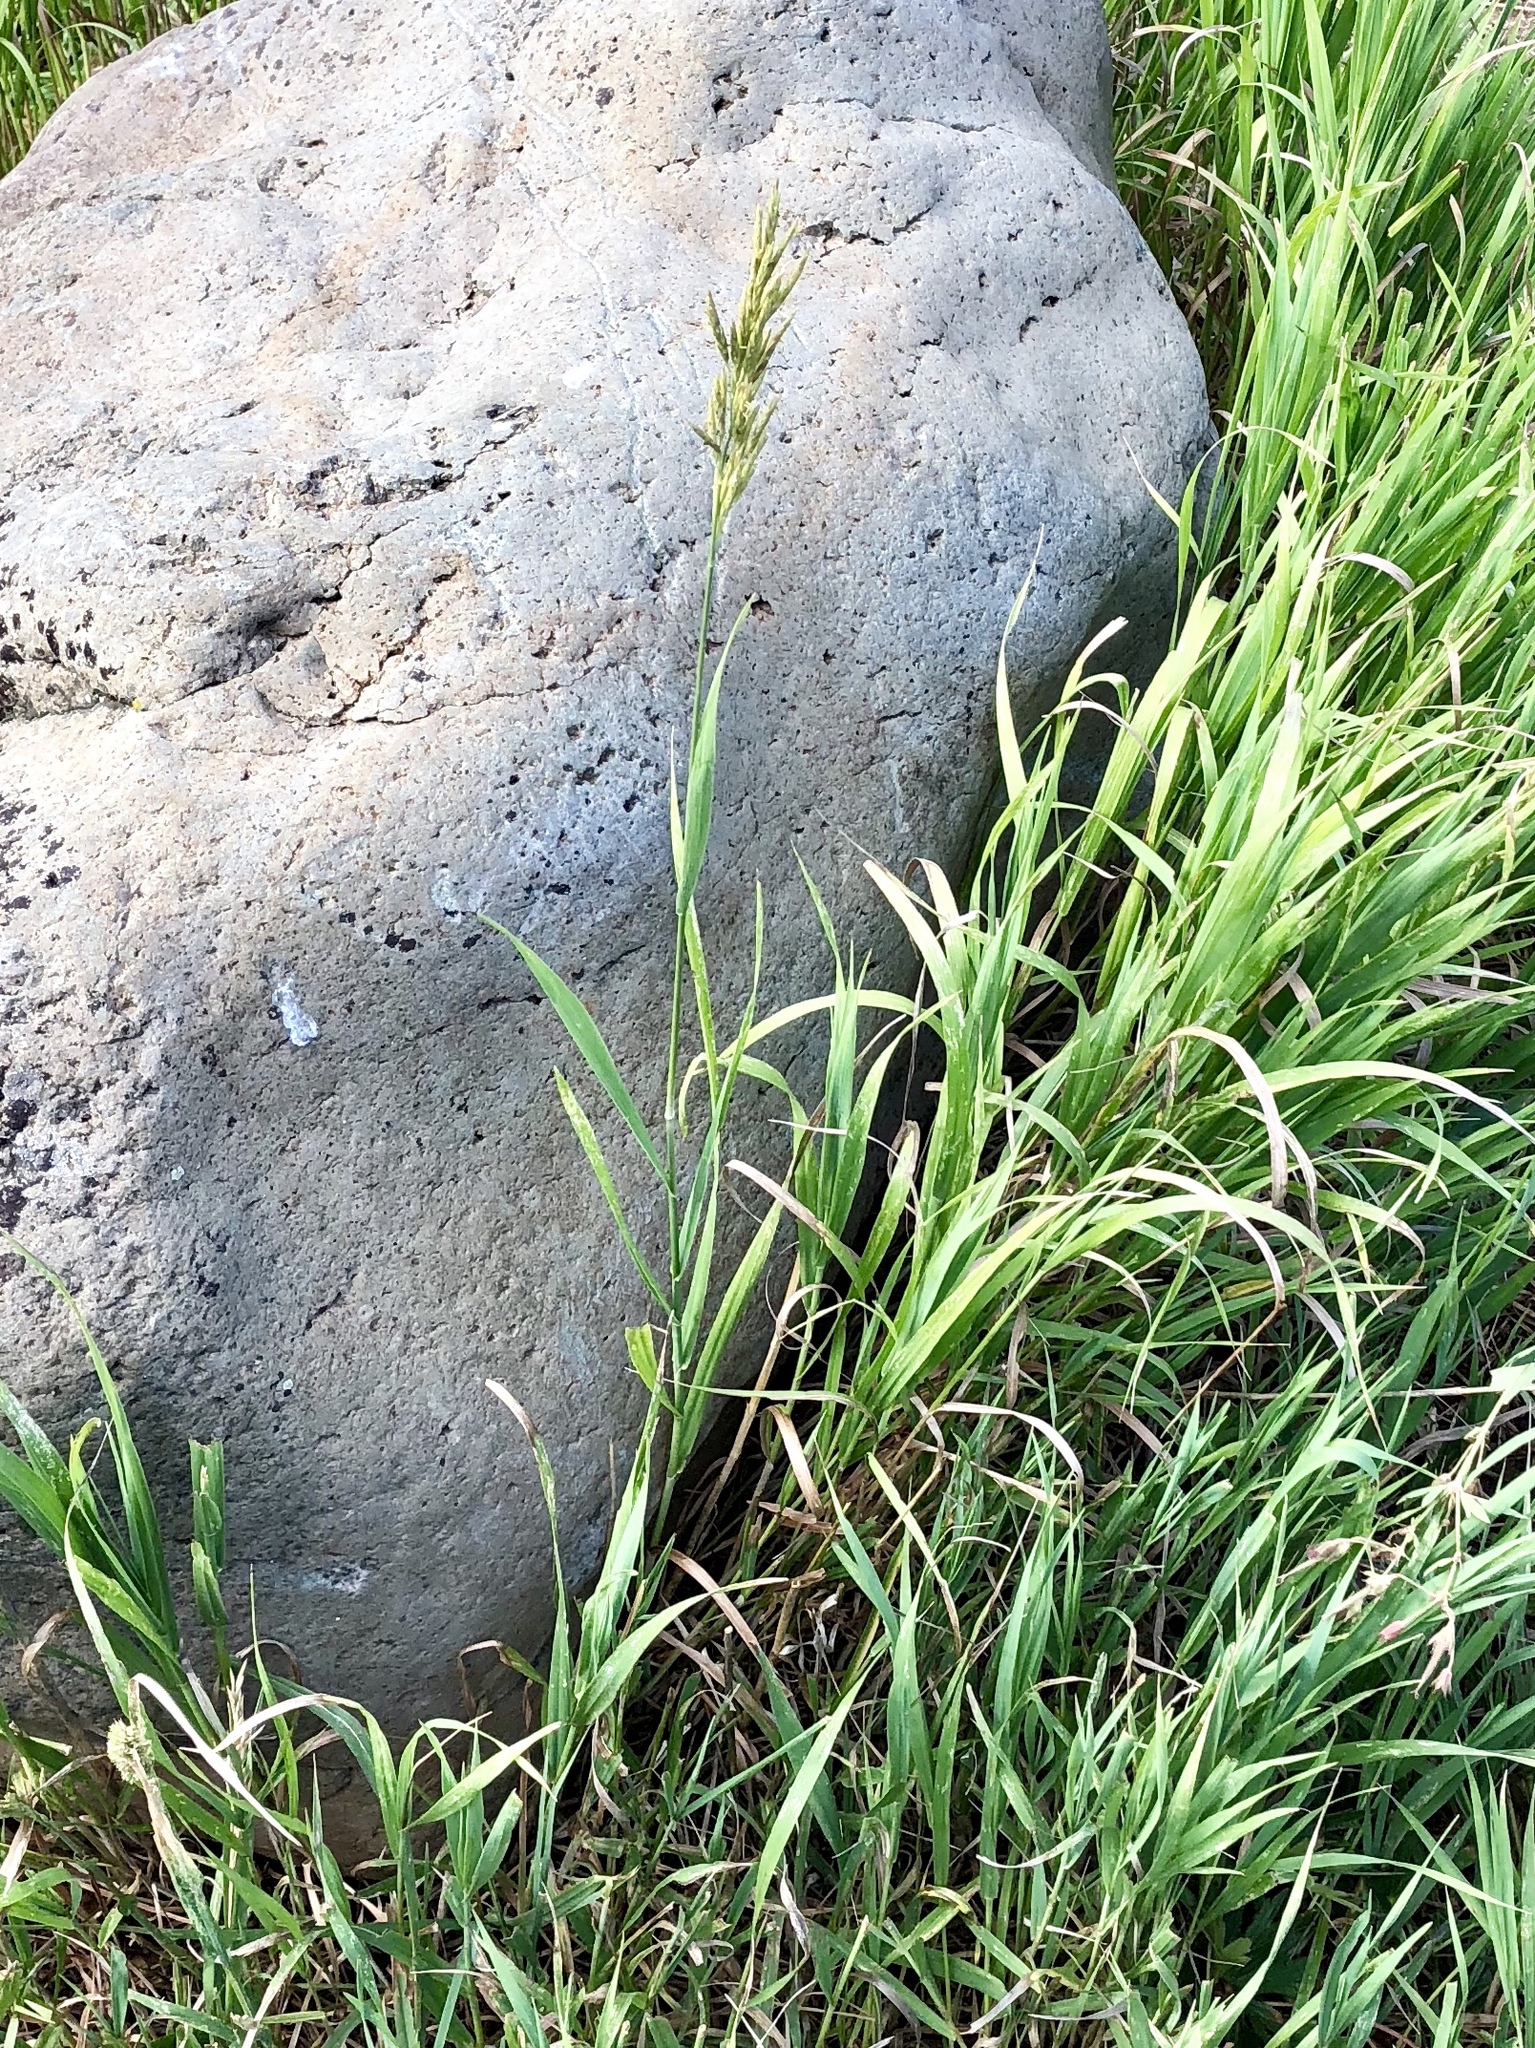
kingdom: Plantae
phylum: Tracheophyta
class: Liliopsida
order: Poales
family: Poaceae
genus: Bromus
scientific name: Bromus inermis
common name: Smooth brome
